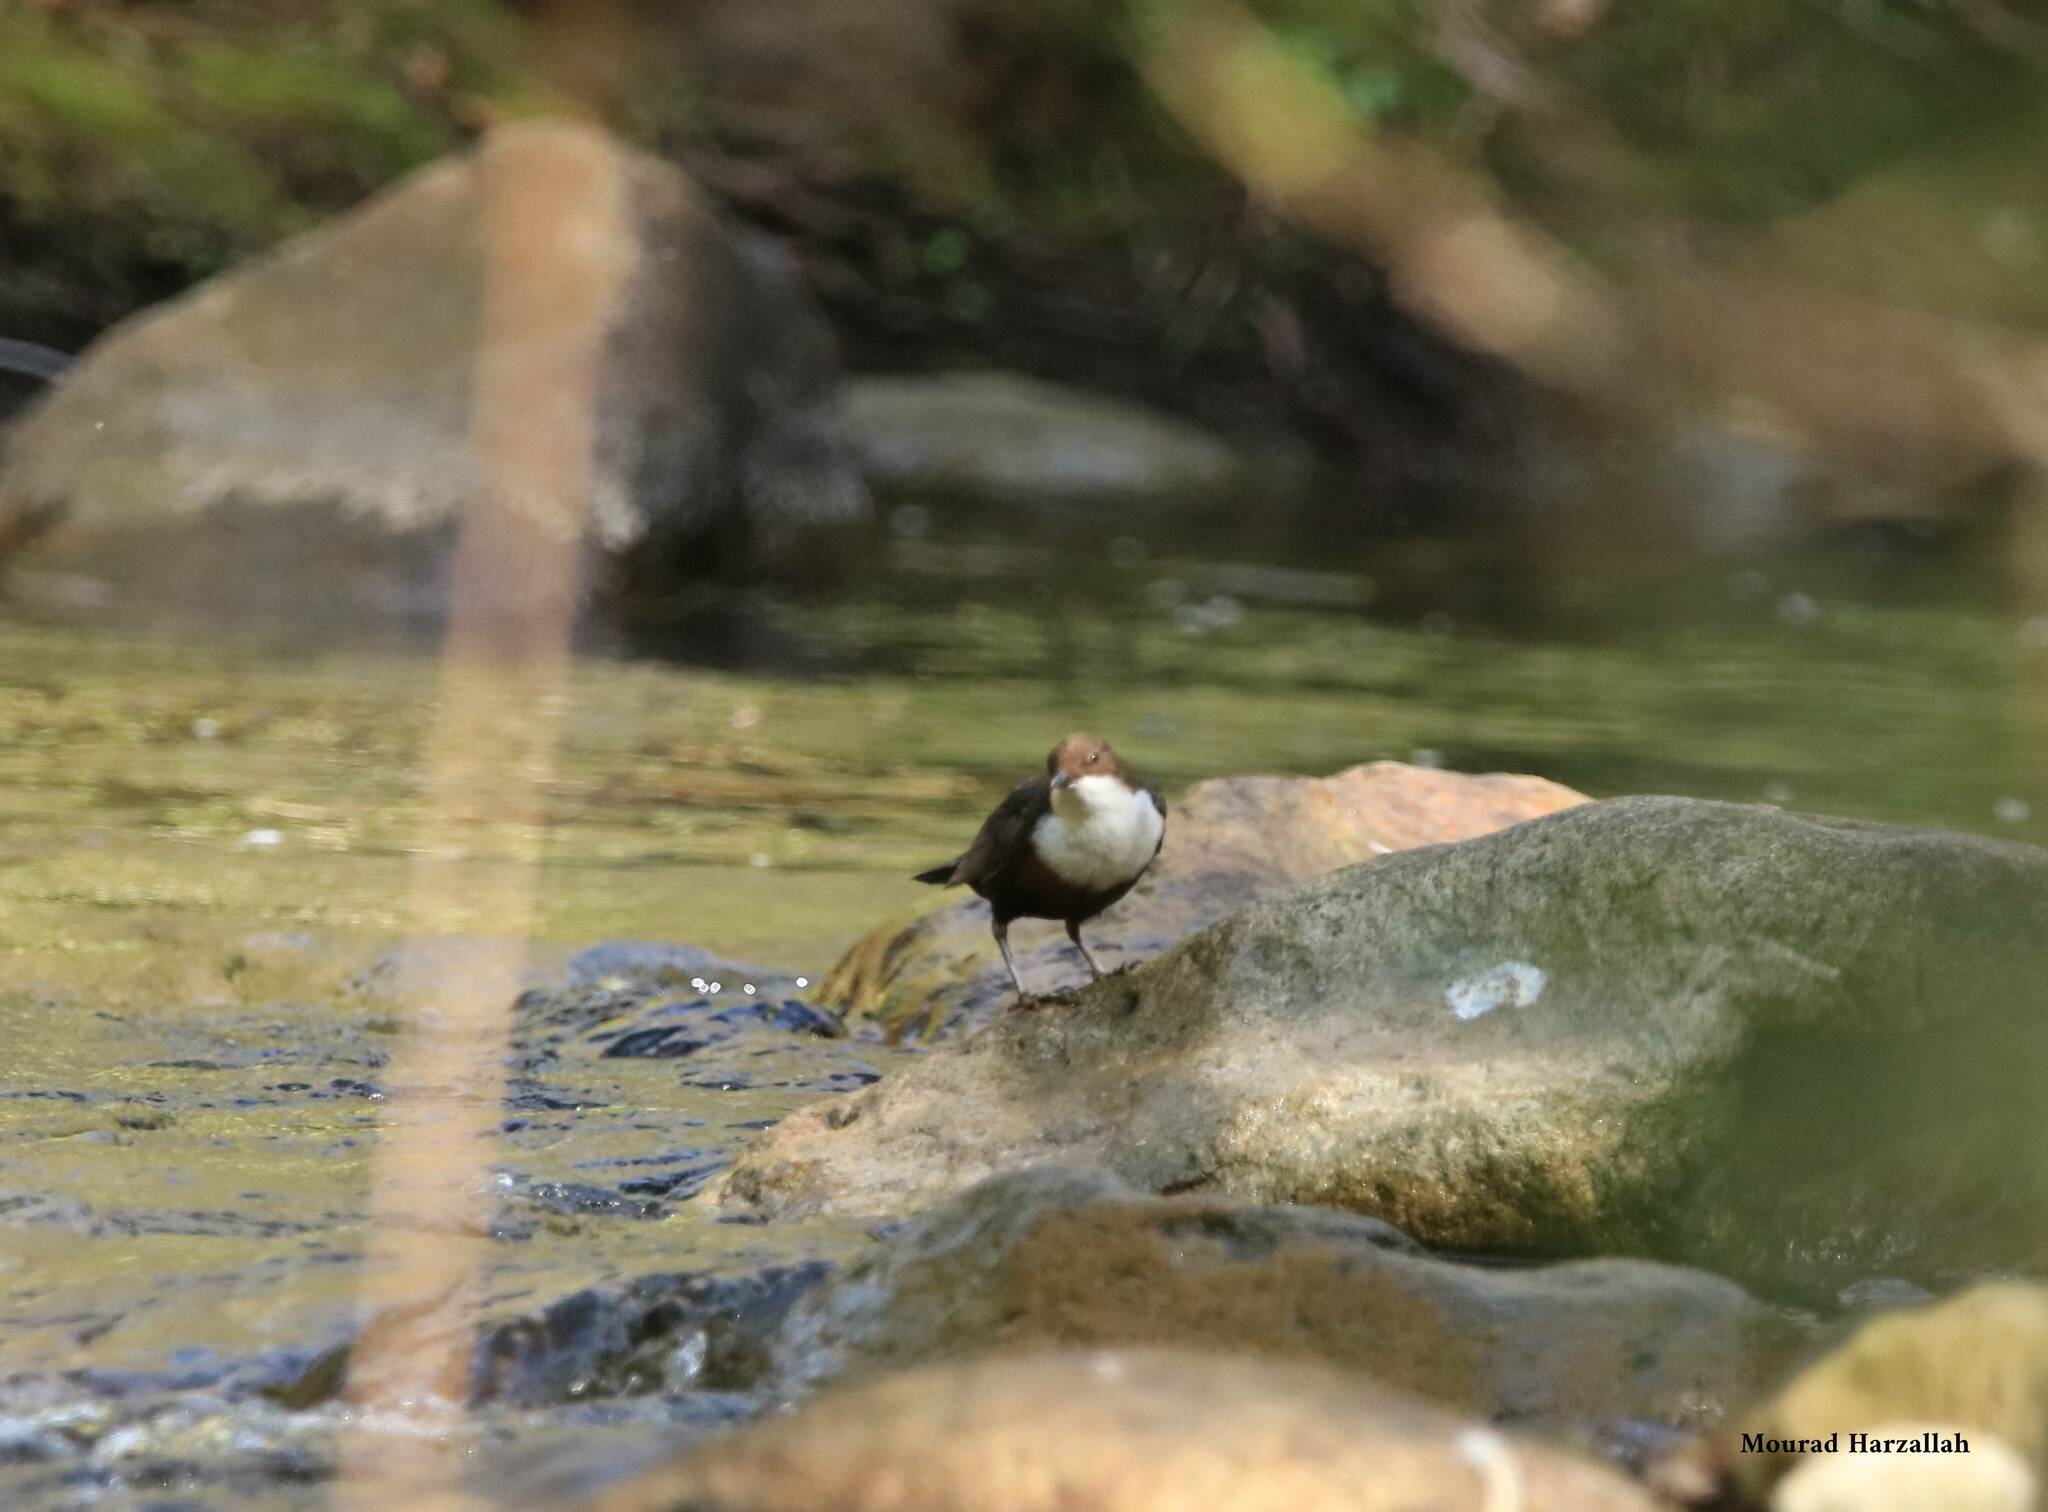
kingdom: Animalia
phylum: Chordata
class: Aves
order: Passeriformes
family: Cinclidae
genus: Cinclus
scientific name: Cinclus cinclus
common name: White-throated dipper
